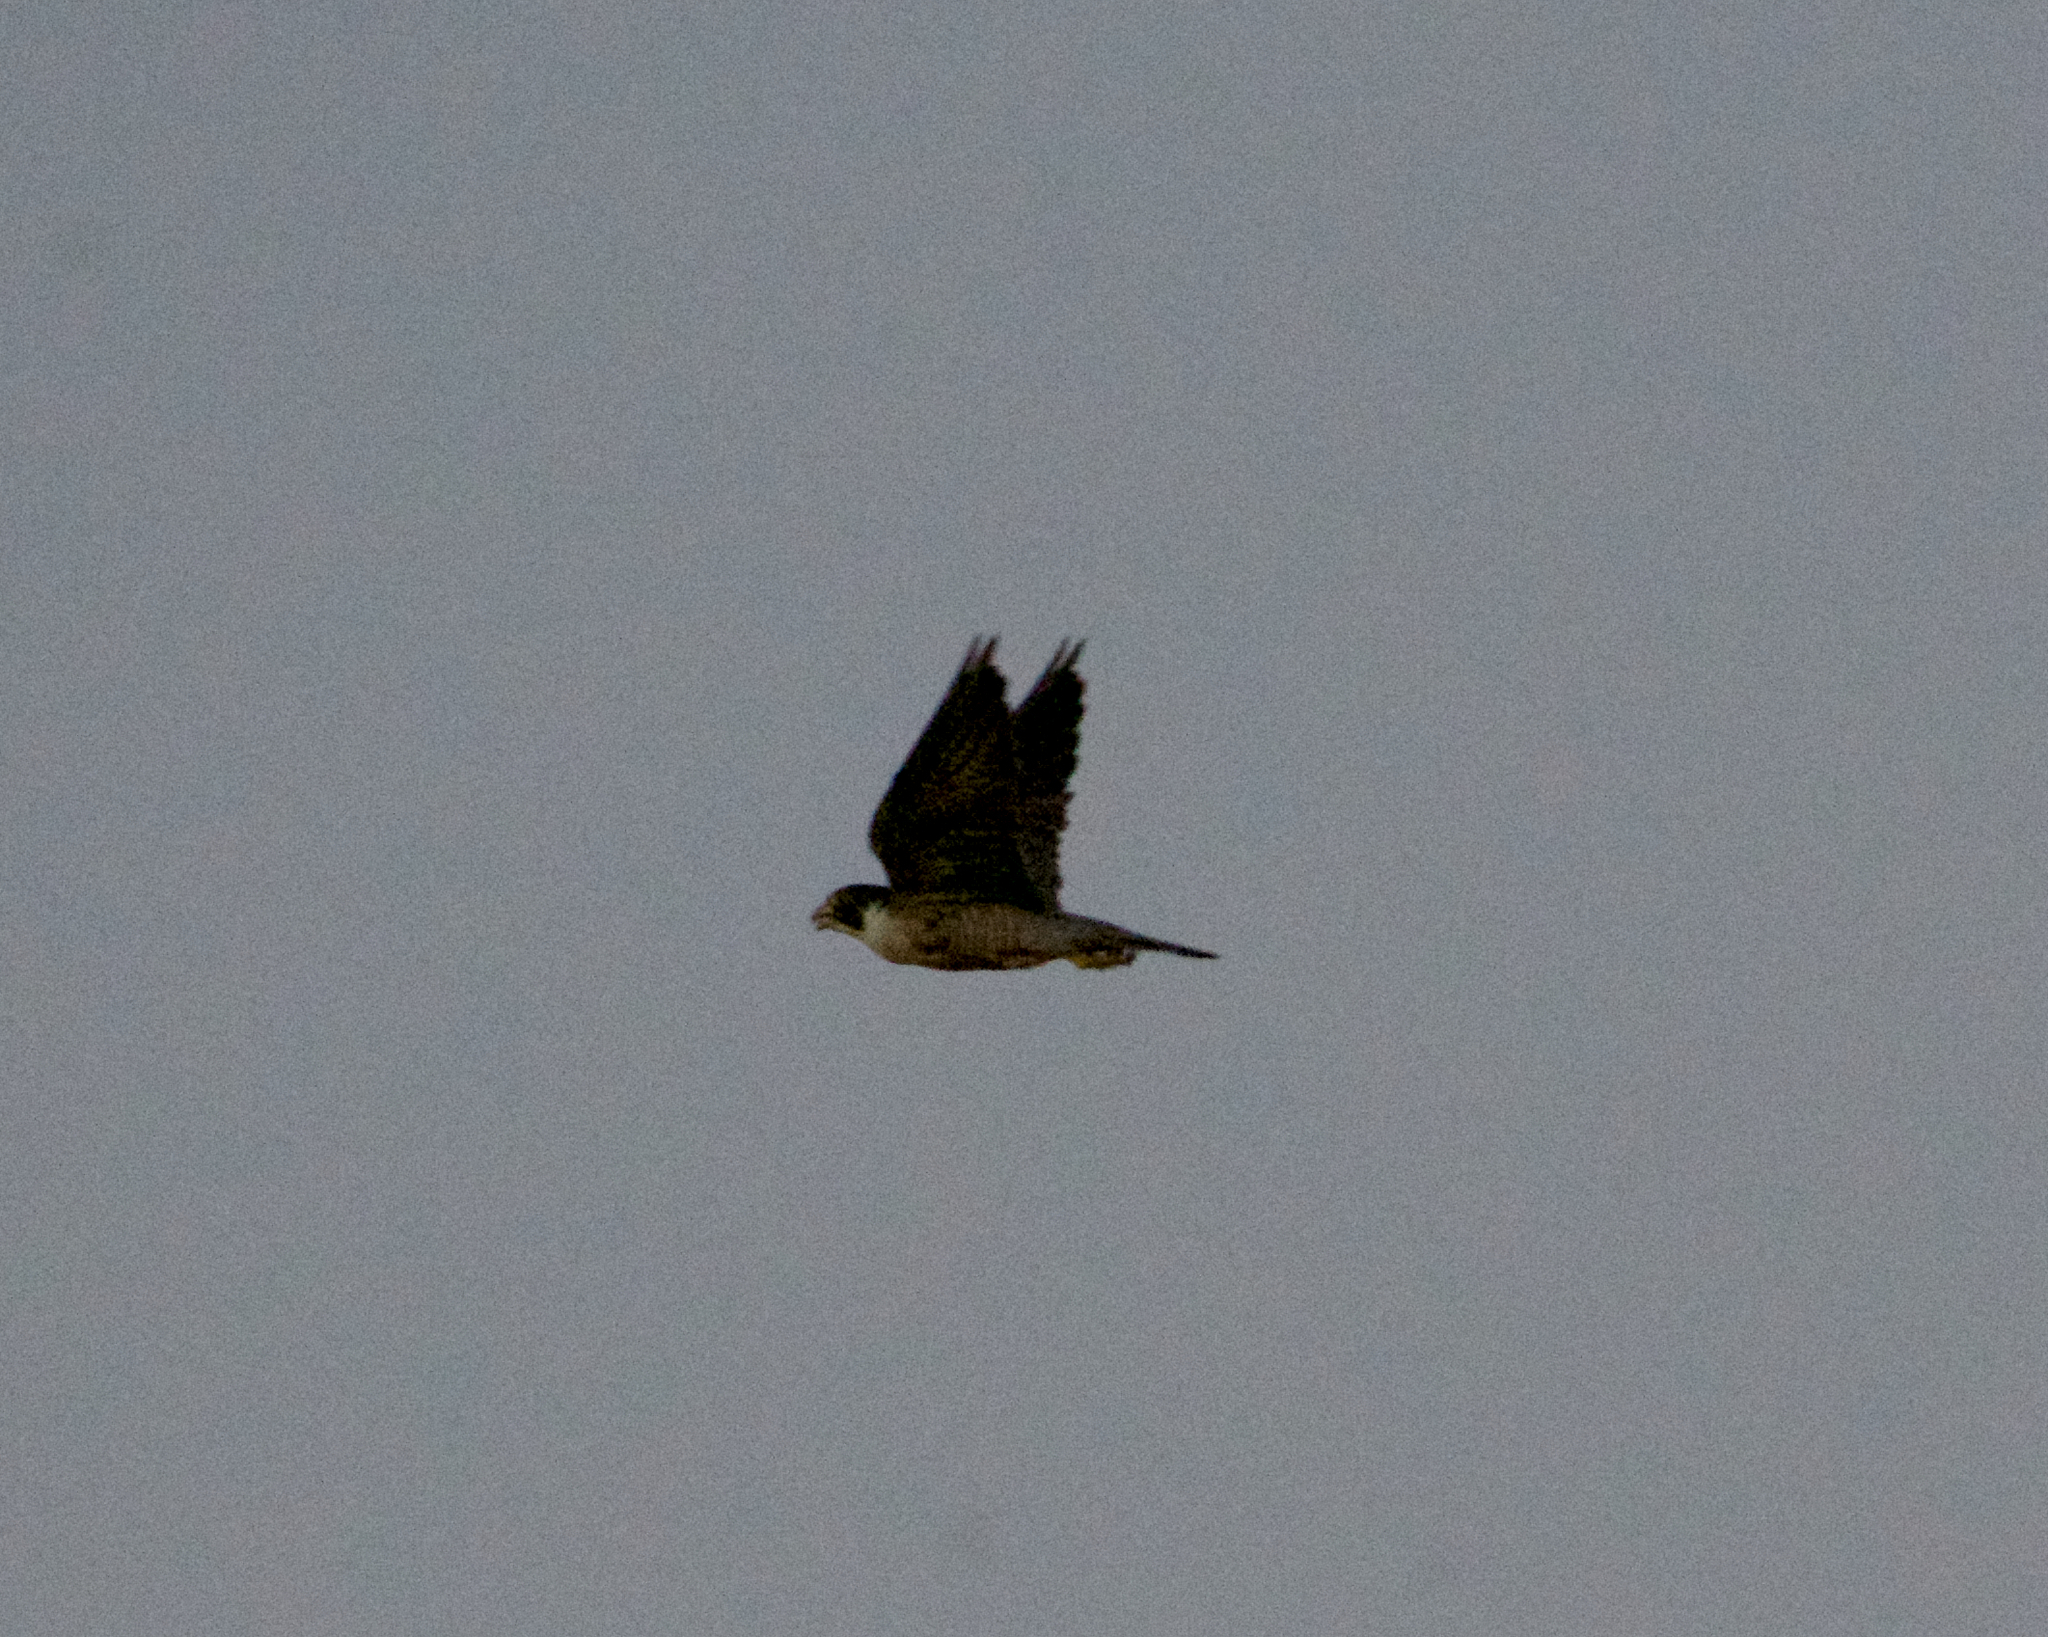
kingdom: Animalia
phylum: Chordata
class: Aves
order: Falconiformes
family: Falconidae
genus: Falco
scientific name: Falco peregrinus
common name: Peregrine falcon
